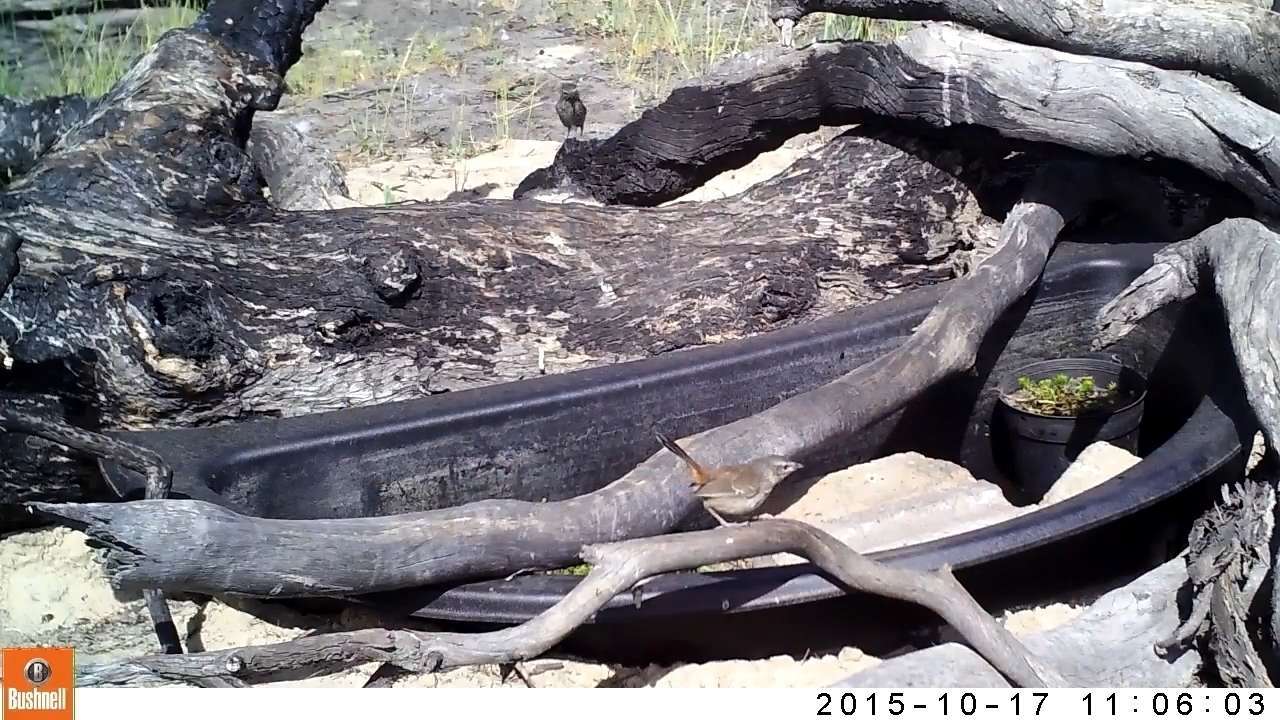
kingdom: Animalia
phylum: Chordata
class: Aves
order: Passeriformes
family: Acanthizidae
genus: Calamanthus
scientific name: Calamanthus pyrrhopygius
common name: Chestnut-rumped heathwren
